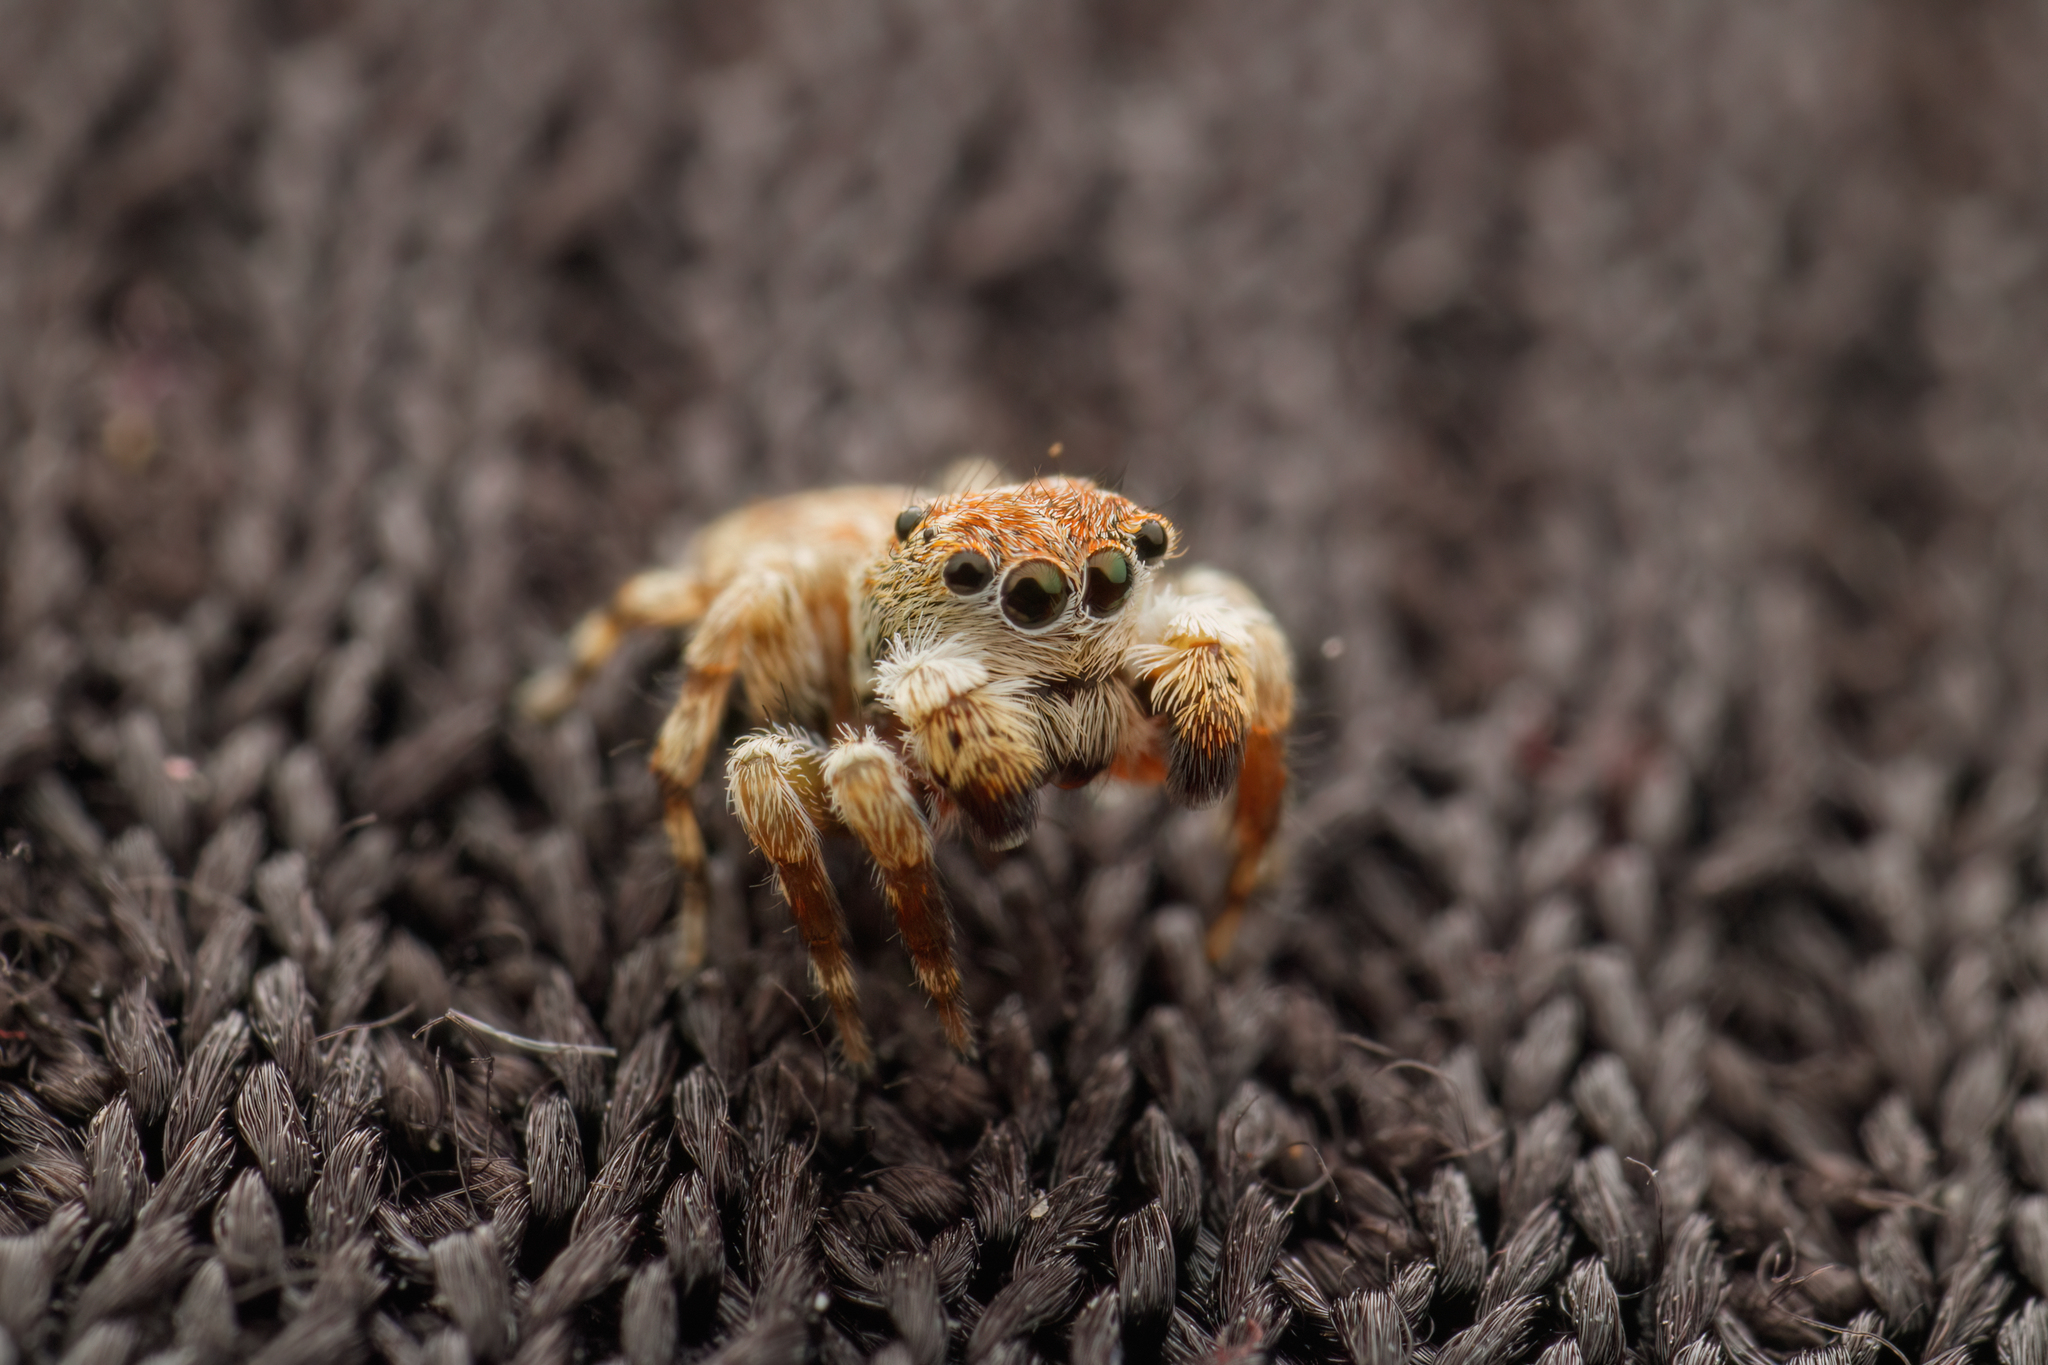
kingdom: Animalia
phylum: Arthropoda
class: Arachnida
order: Araneae
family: Salticidae
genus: Curubis
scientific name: Curubis erratica
